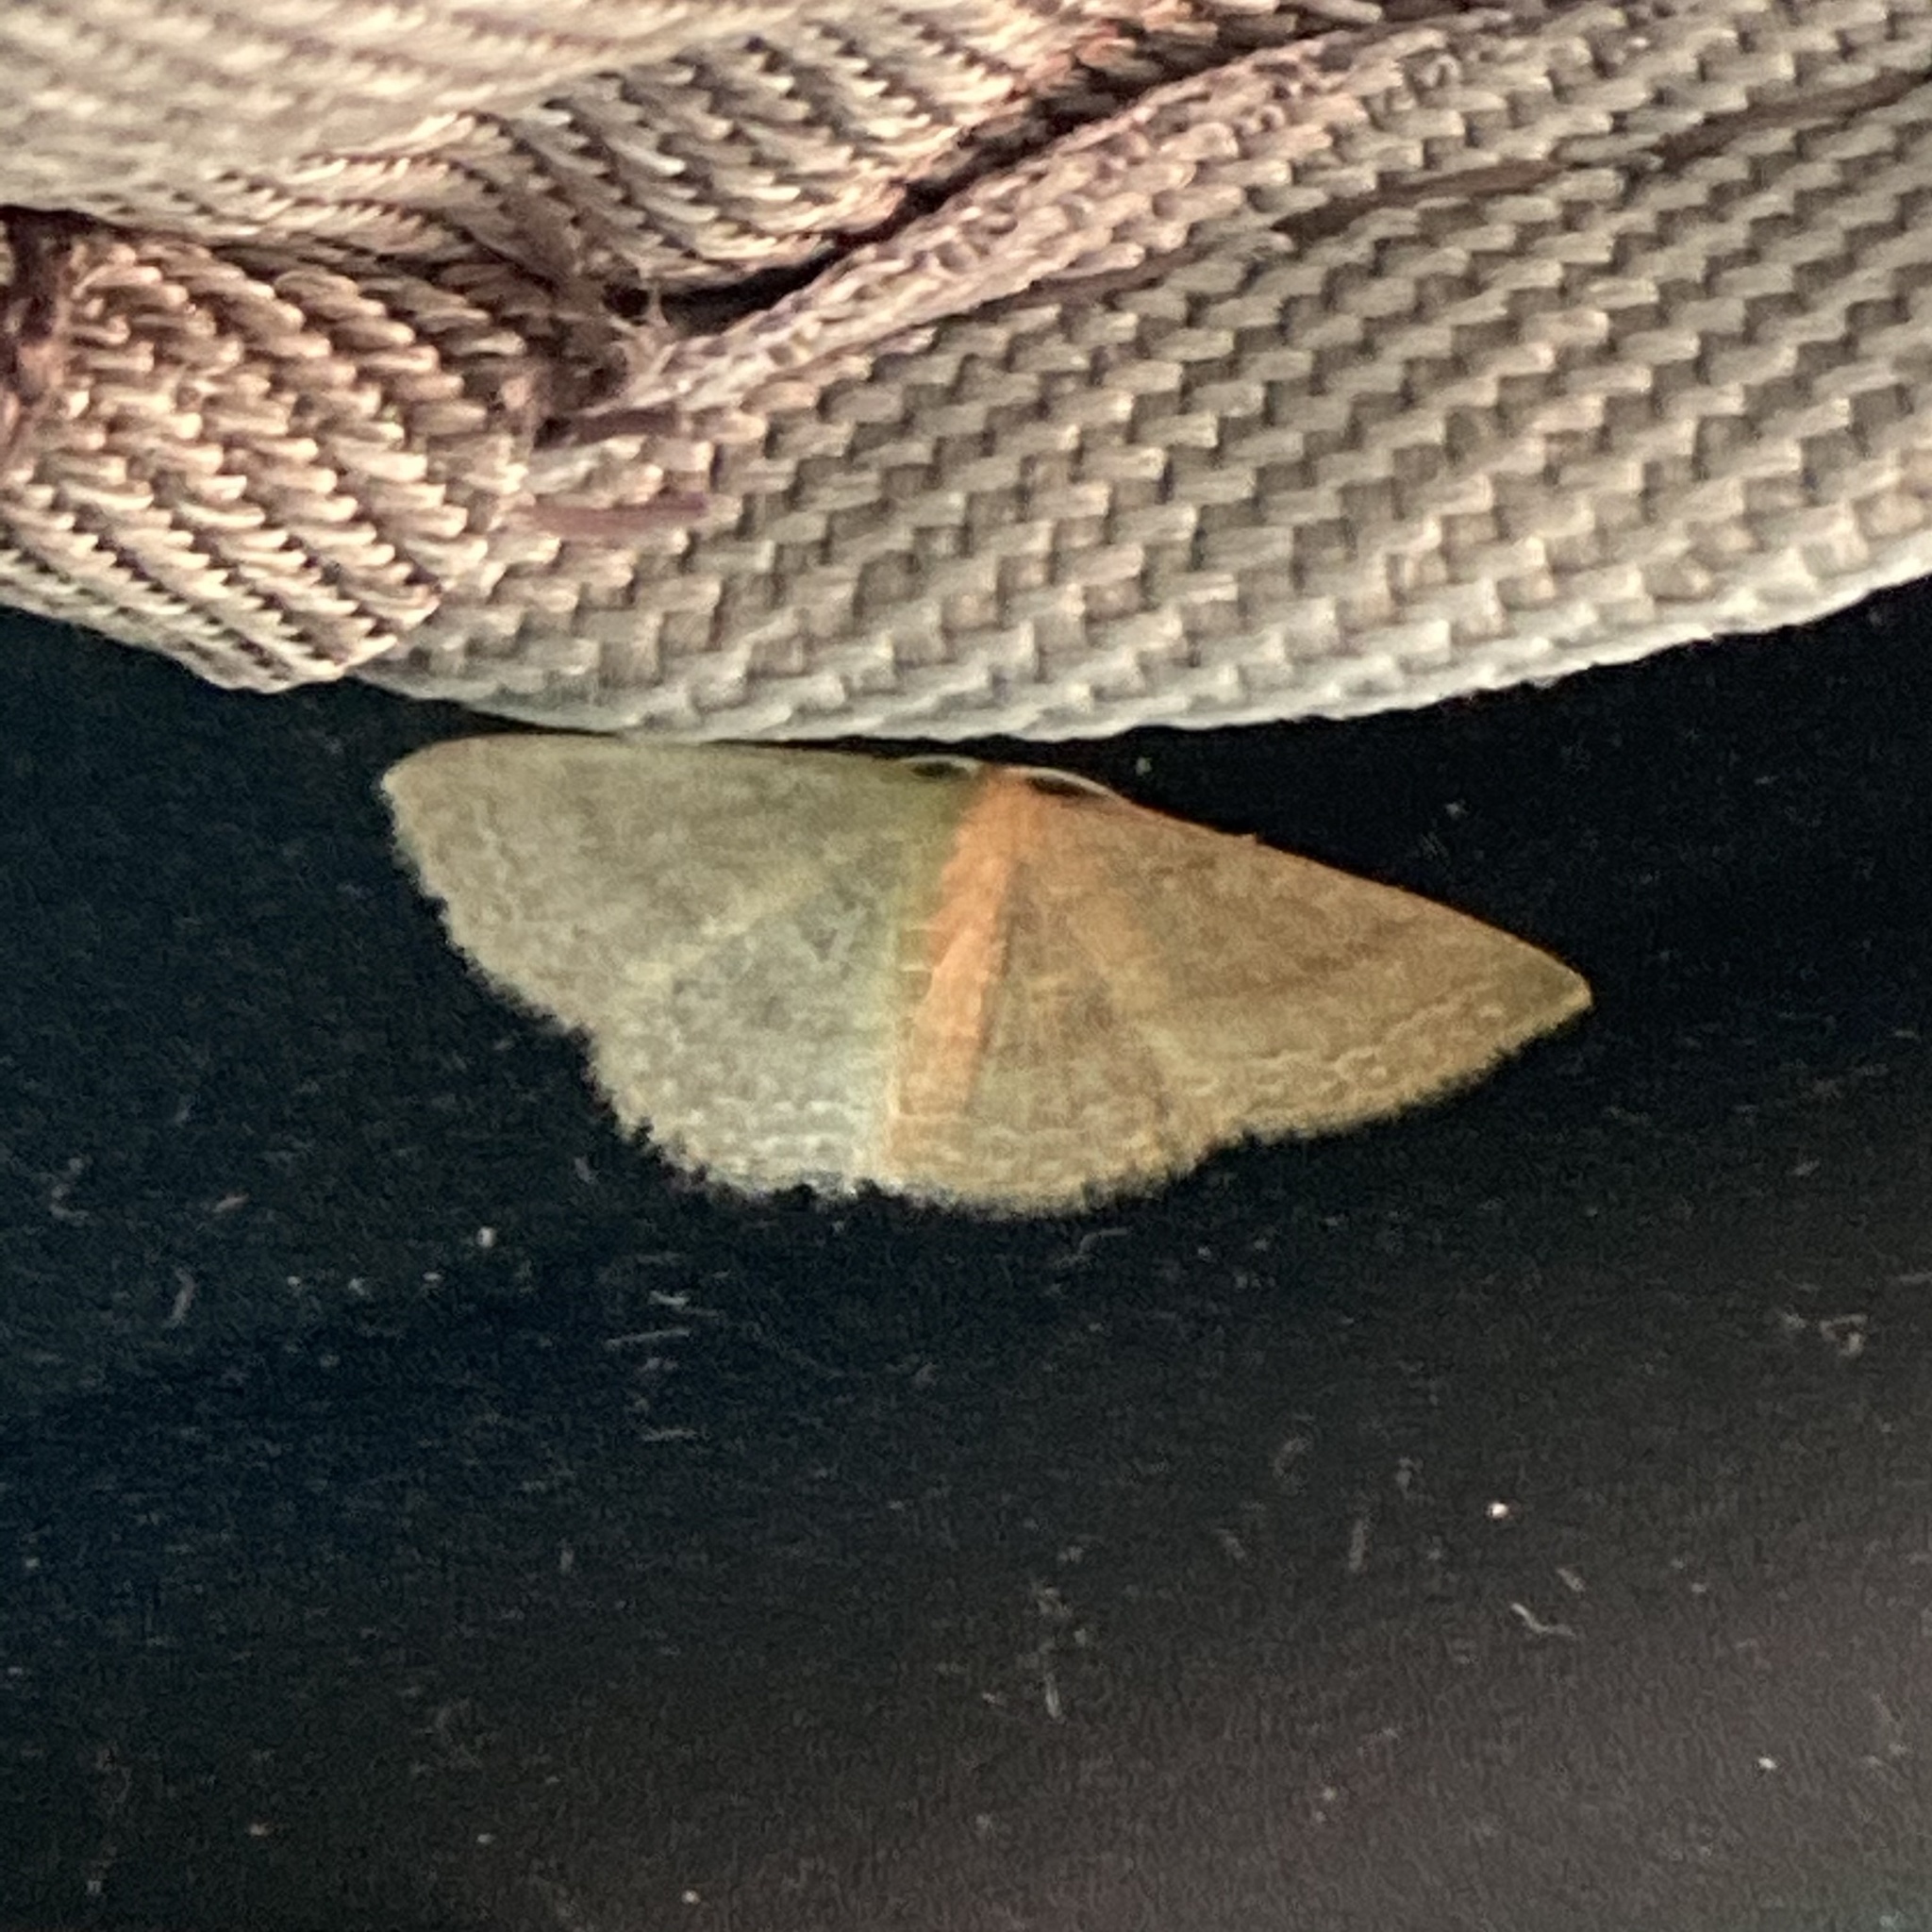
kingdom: Animalia
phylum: Arthropoda
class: Insecta
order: Lepidoptera
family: Geometridae
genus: Pleuroprucha
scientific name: Pleuroprucha insulsaria
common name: Common tan wave
